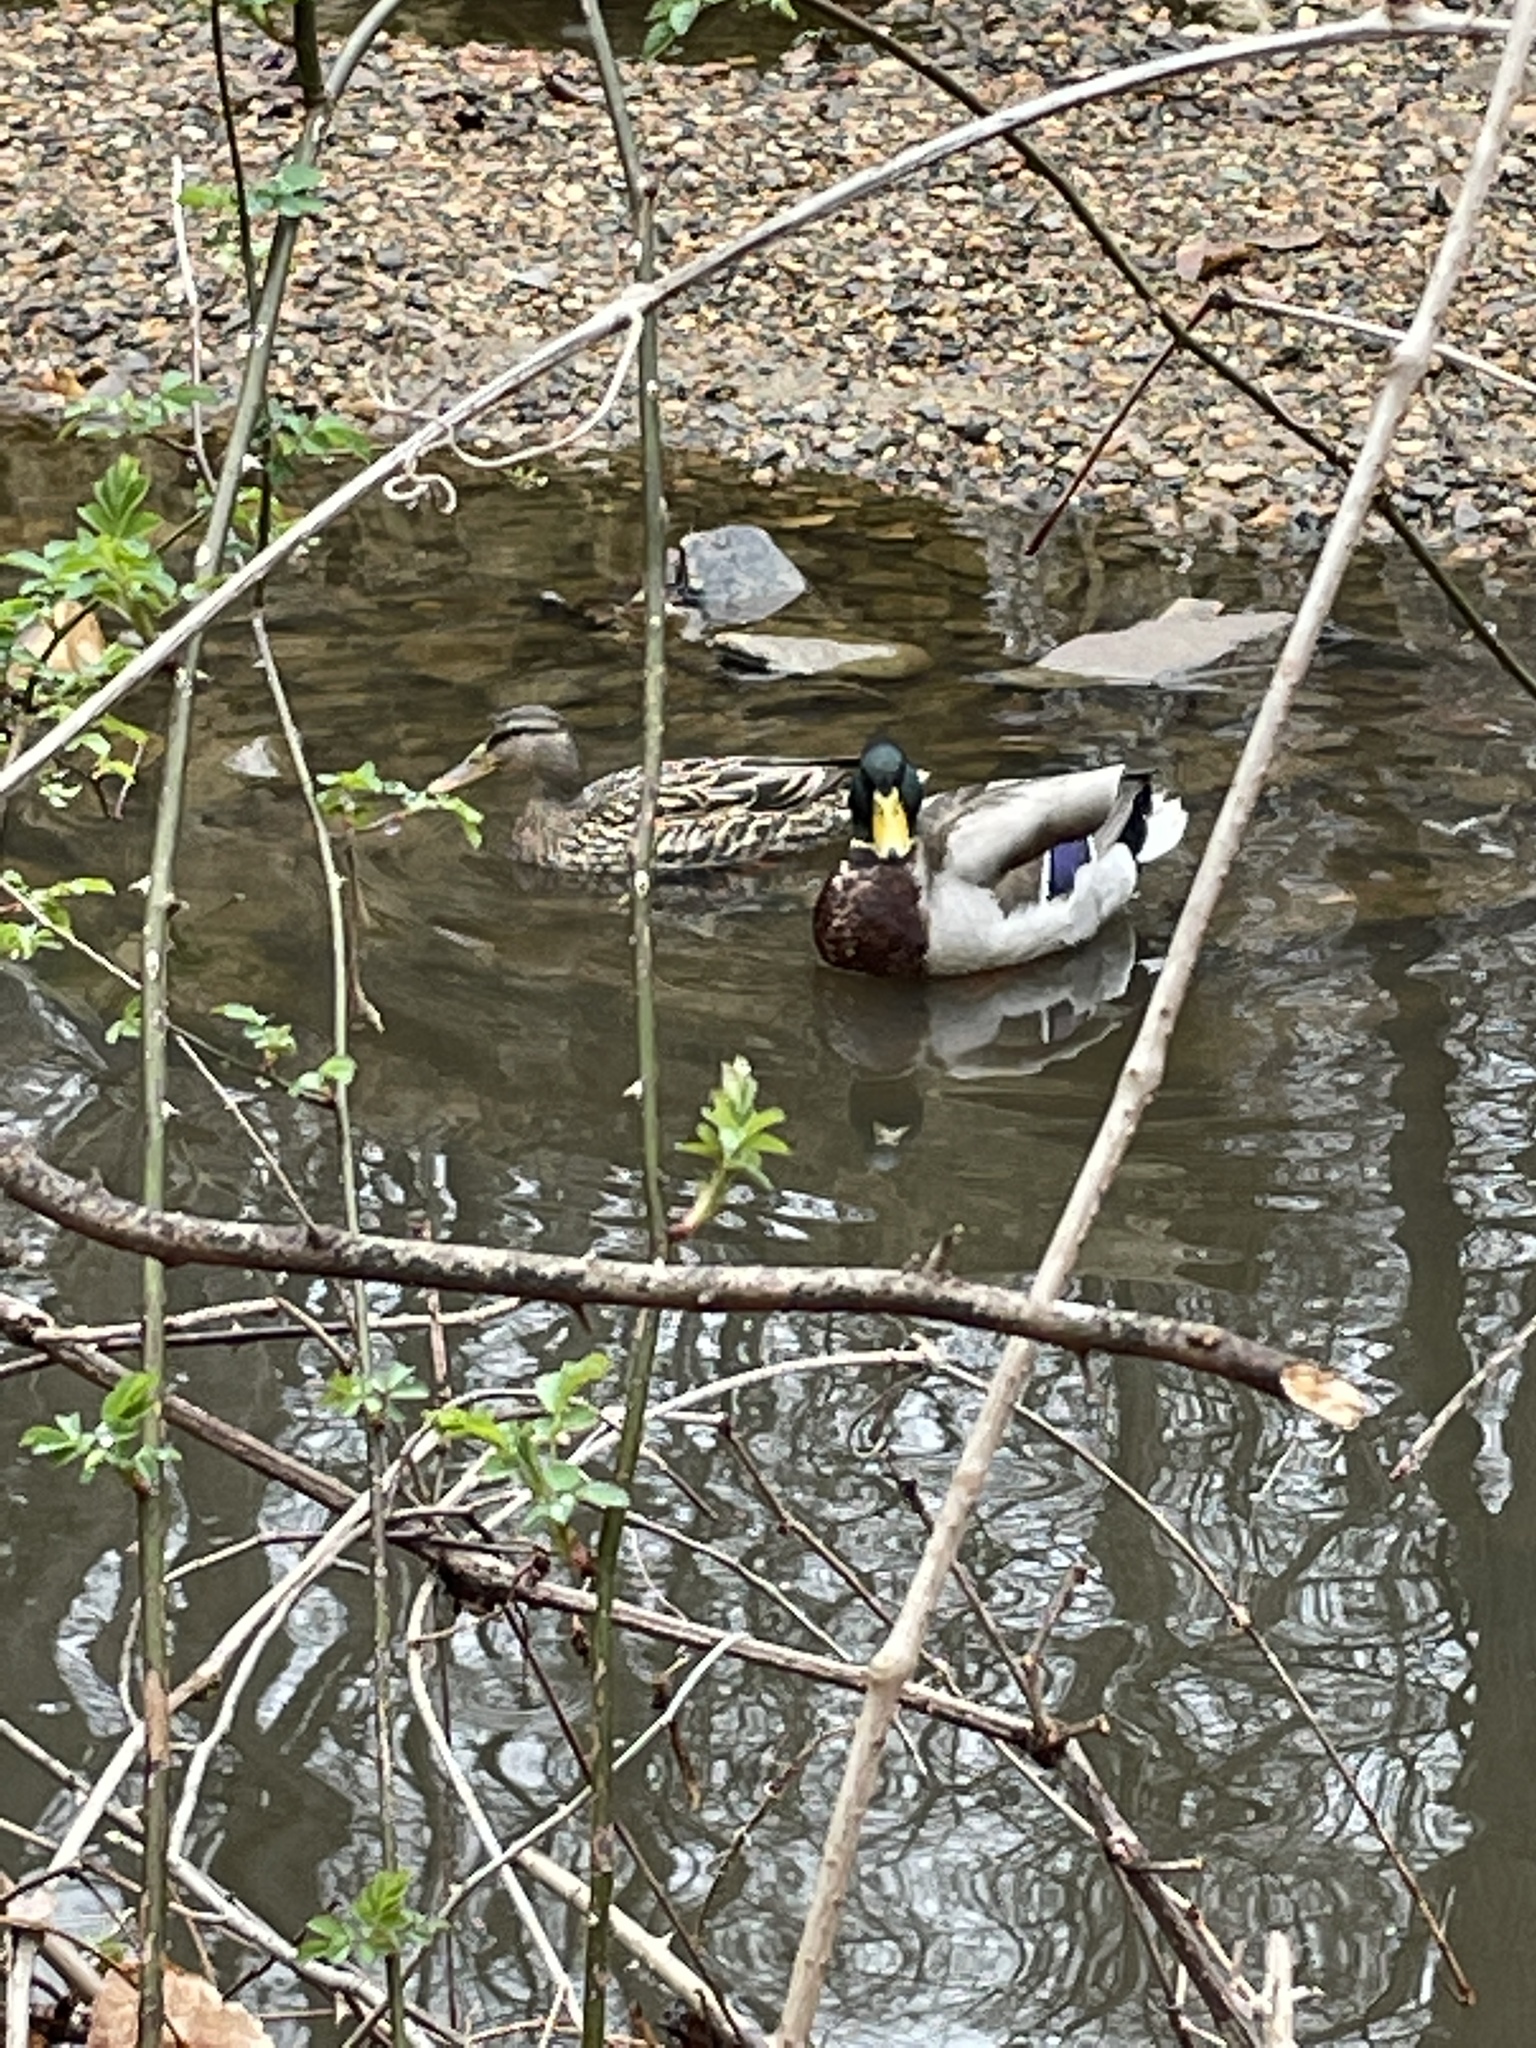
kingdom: Animalia
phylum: Chordata
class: Aves
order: Anseriformes
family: Anatidae
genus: Anas
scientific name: Anas platyrhynchos
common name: Mallard
